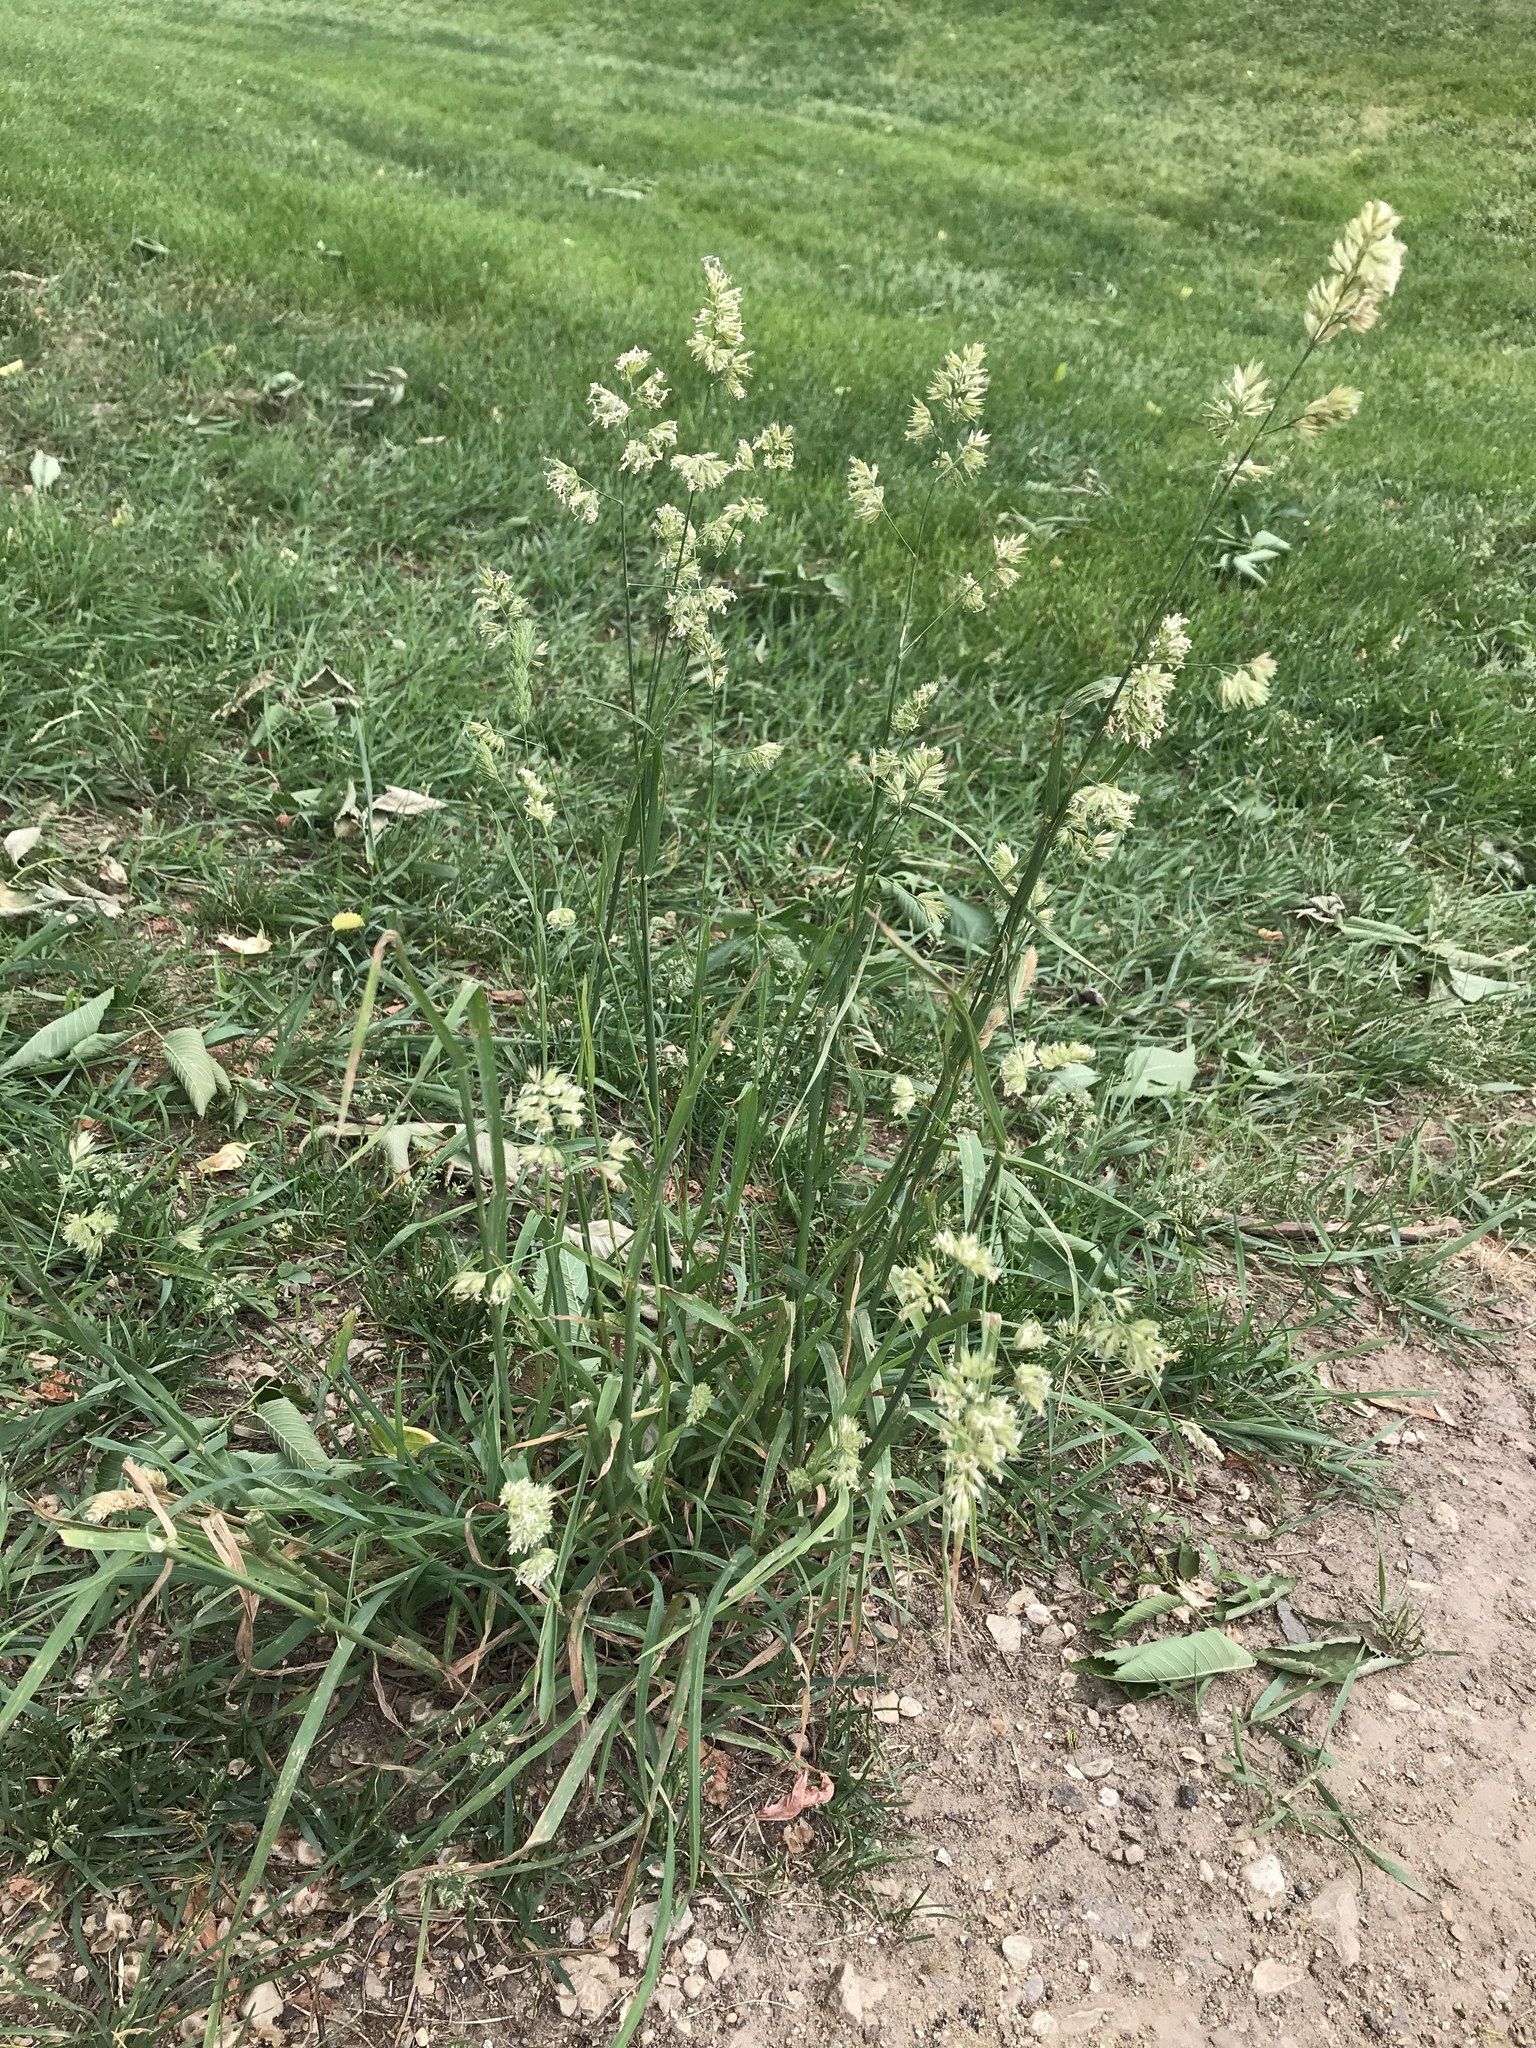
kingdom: Plantae
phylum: Tracheophyta
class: Liliopsida
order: Poales
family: Poaceae
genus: Dactylis
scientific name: Dactylis glomerata
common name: Orchardgrass
